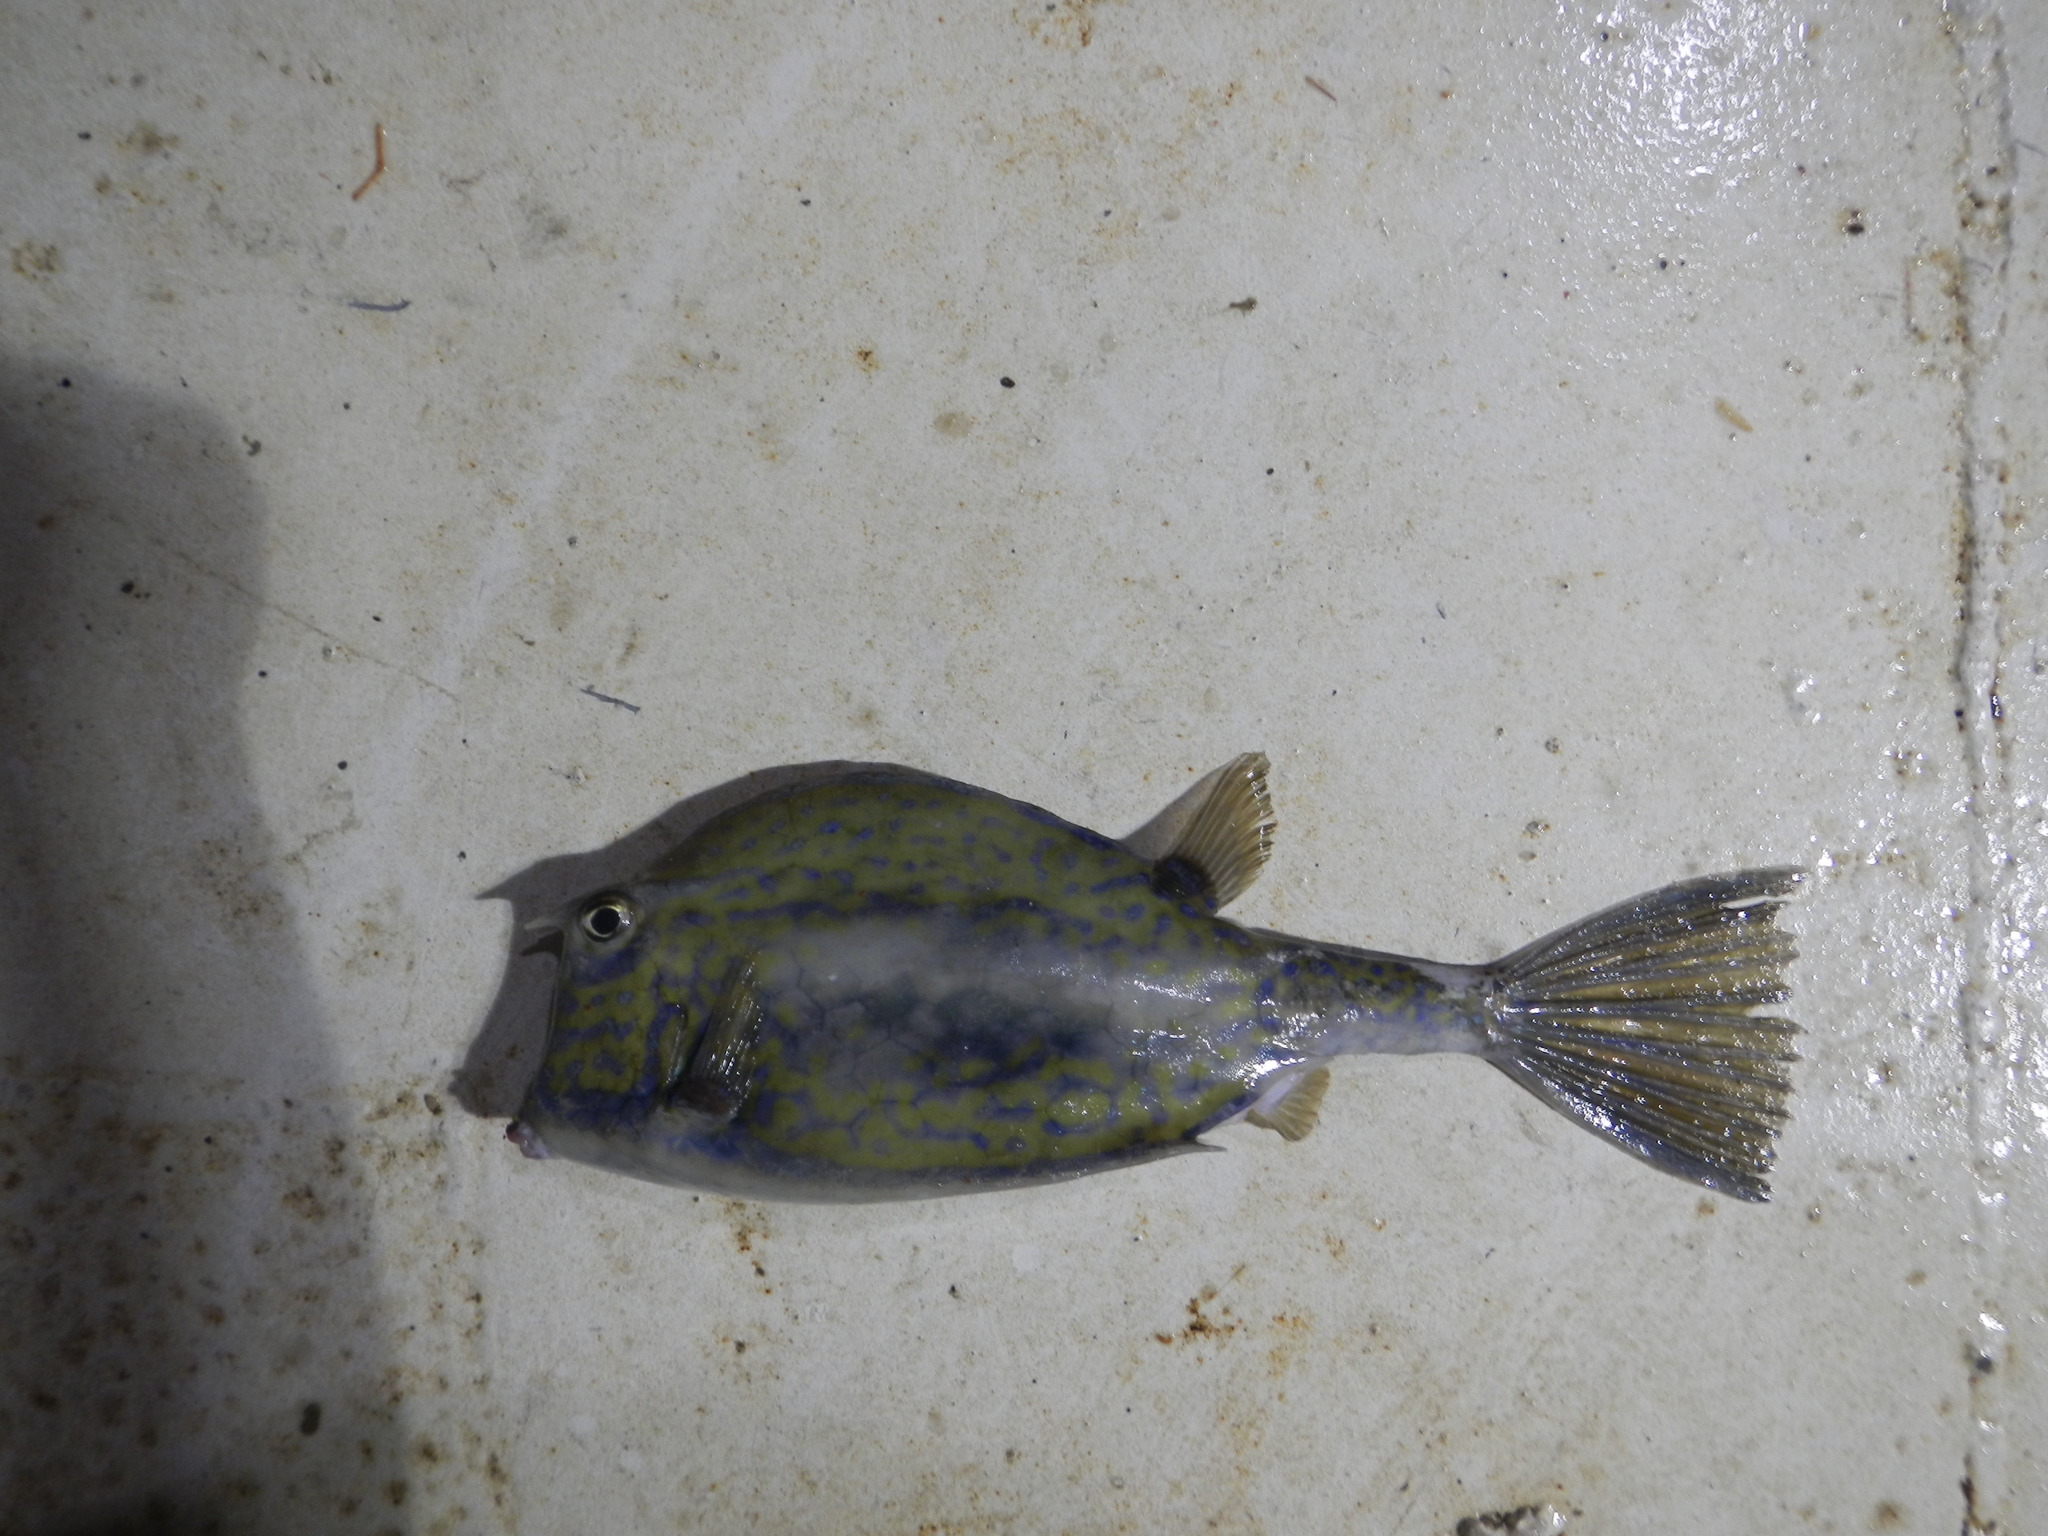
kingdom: Animalia
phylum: Chordata
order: Tetraodontiformes
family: Ostraciidae
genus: Acanthostracion
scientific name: Acanthostracion quadricornis
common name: Scrawled cowfish
